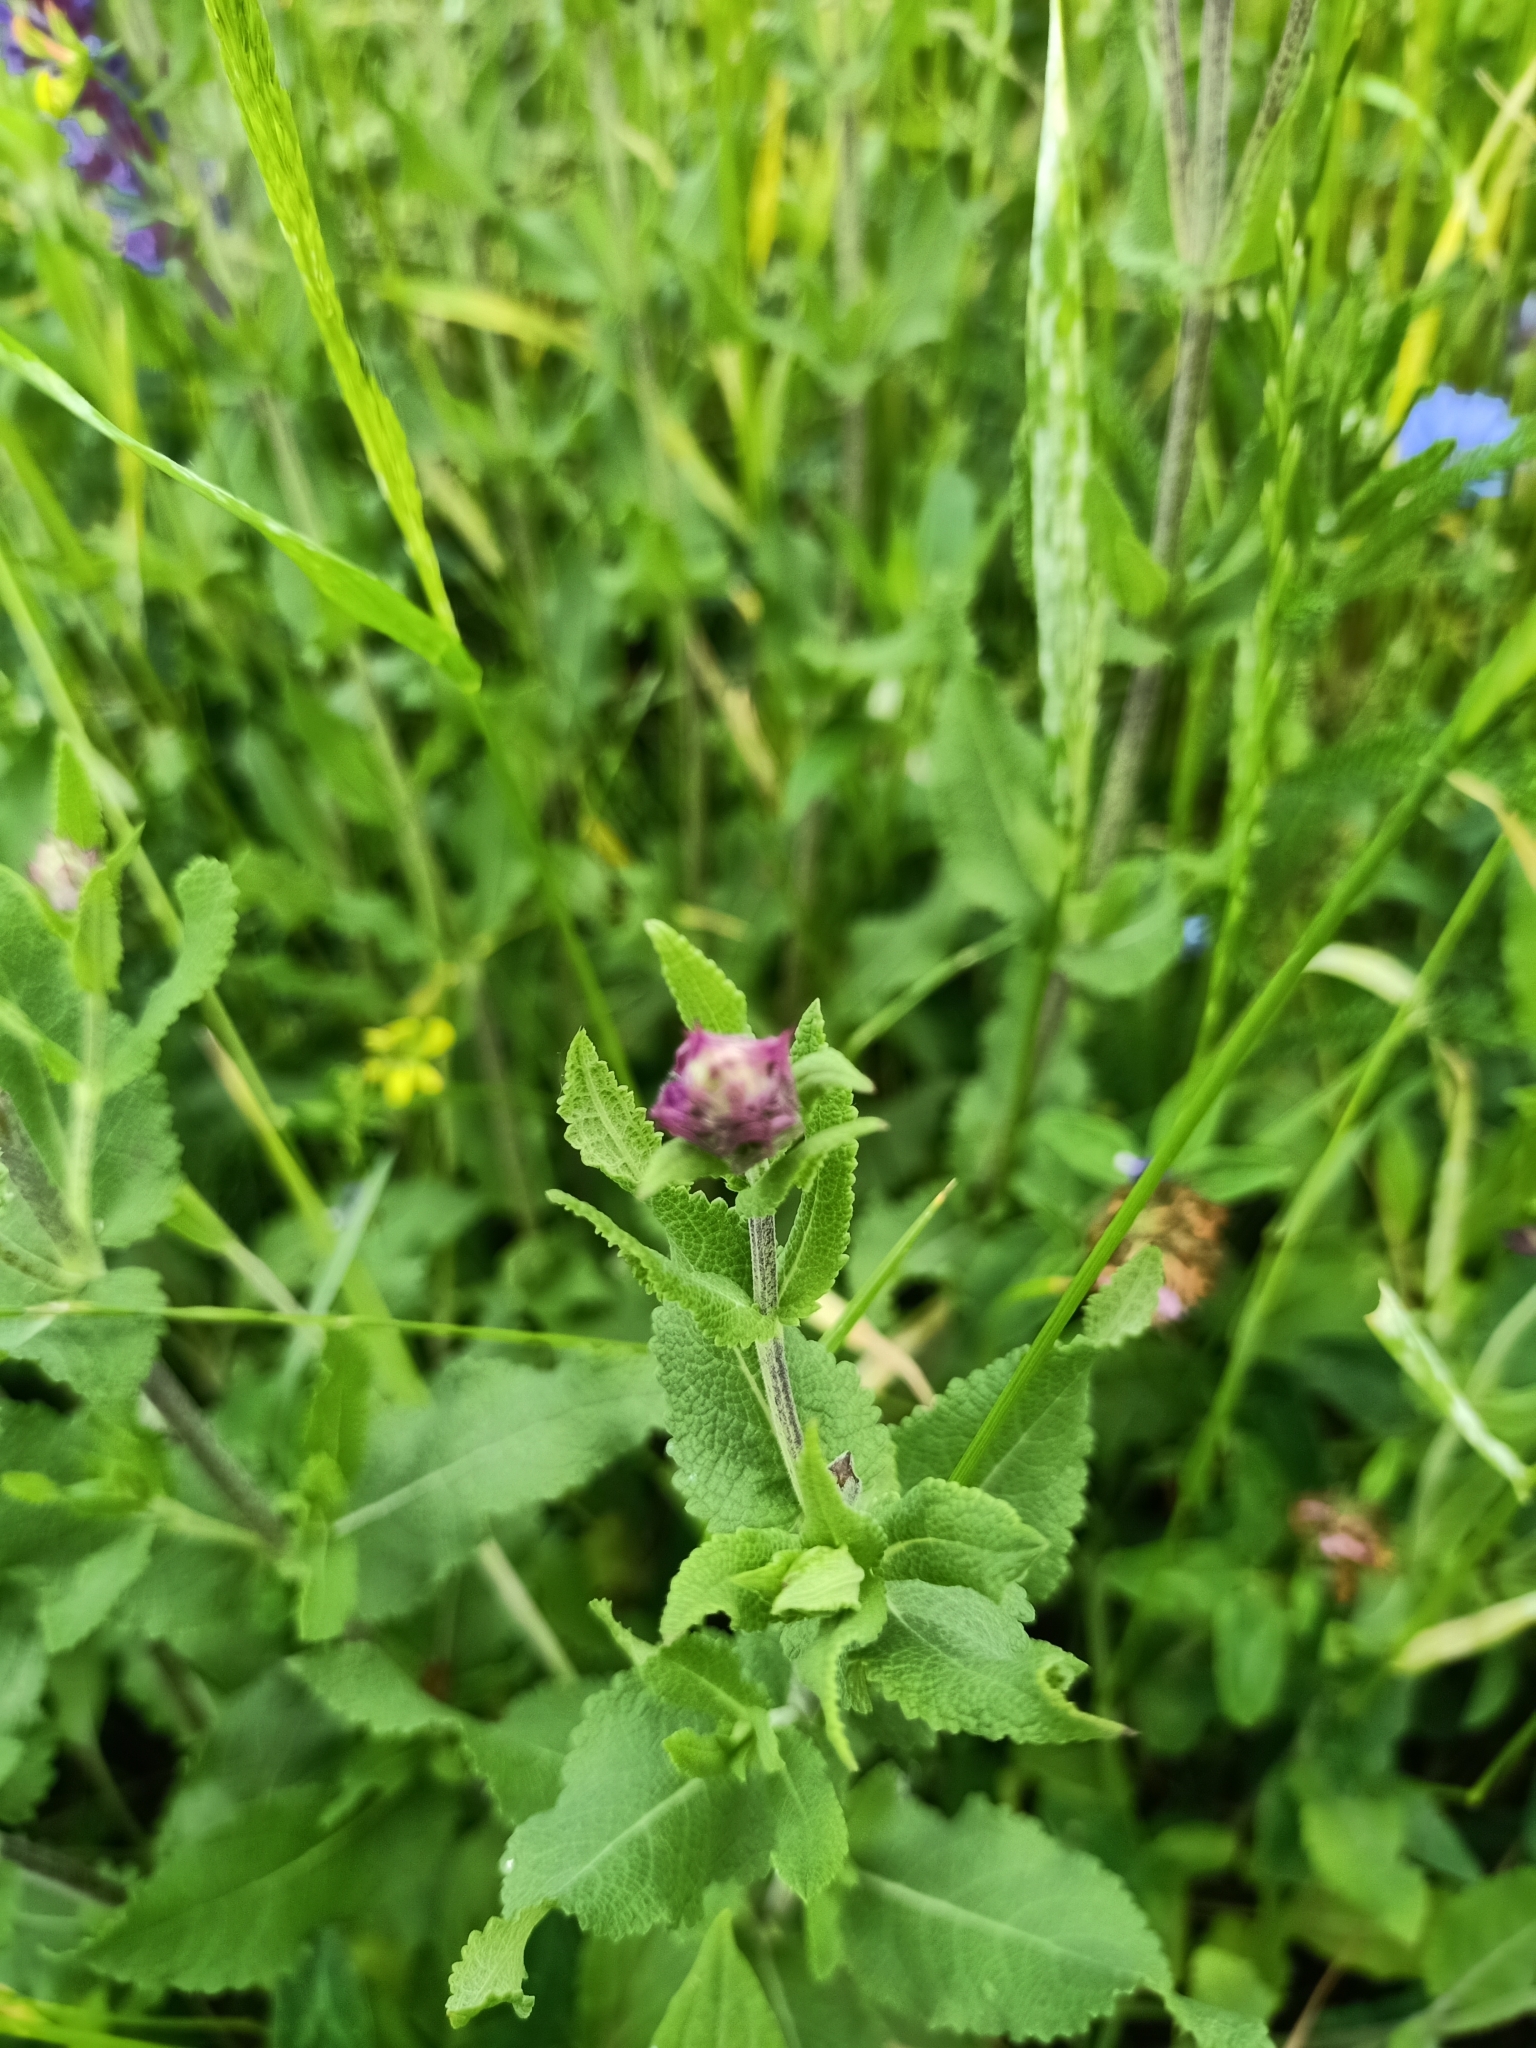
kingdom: Plantae
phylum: Tracheophyta
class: Magnoliopsida
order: Lamiales
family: Lamiaceae
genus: Salvia
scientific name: Salvia pratensis
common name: Meadow sage
